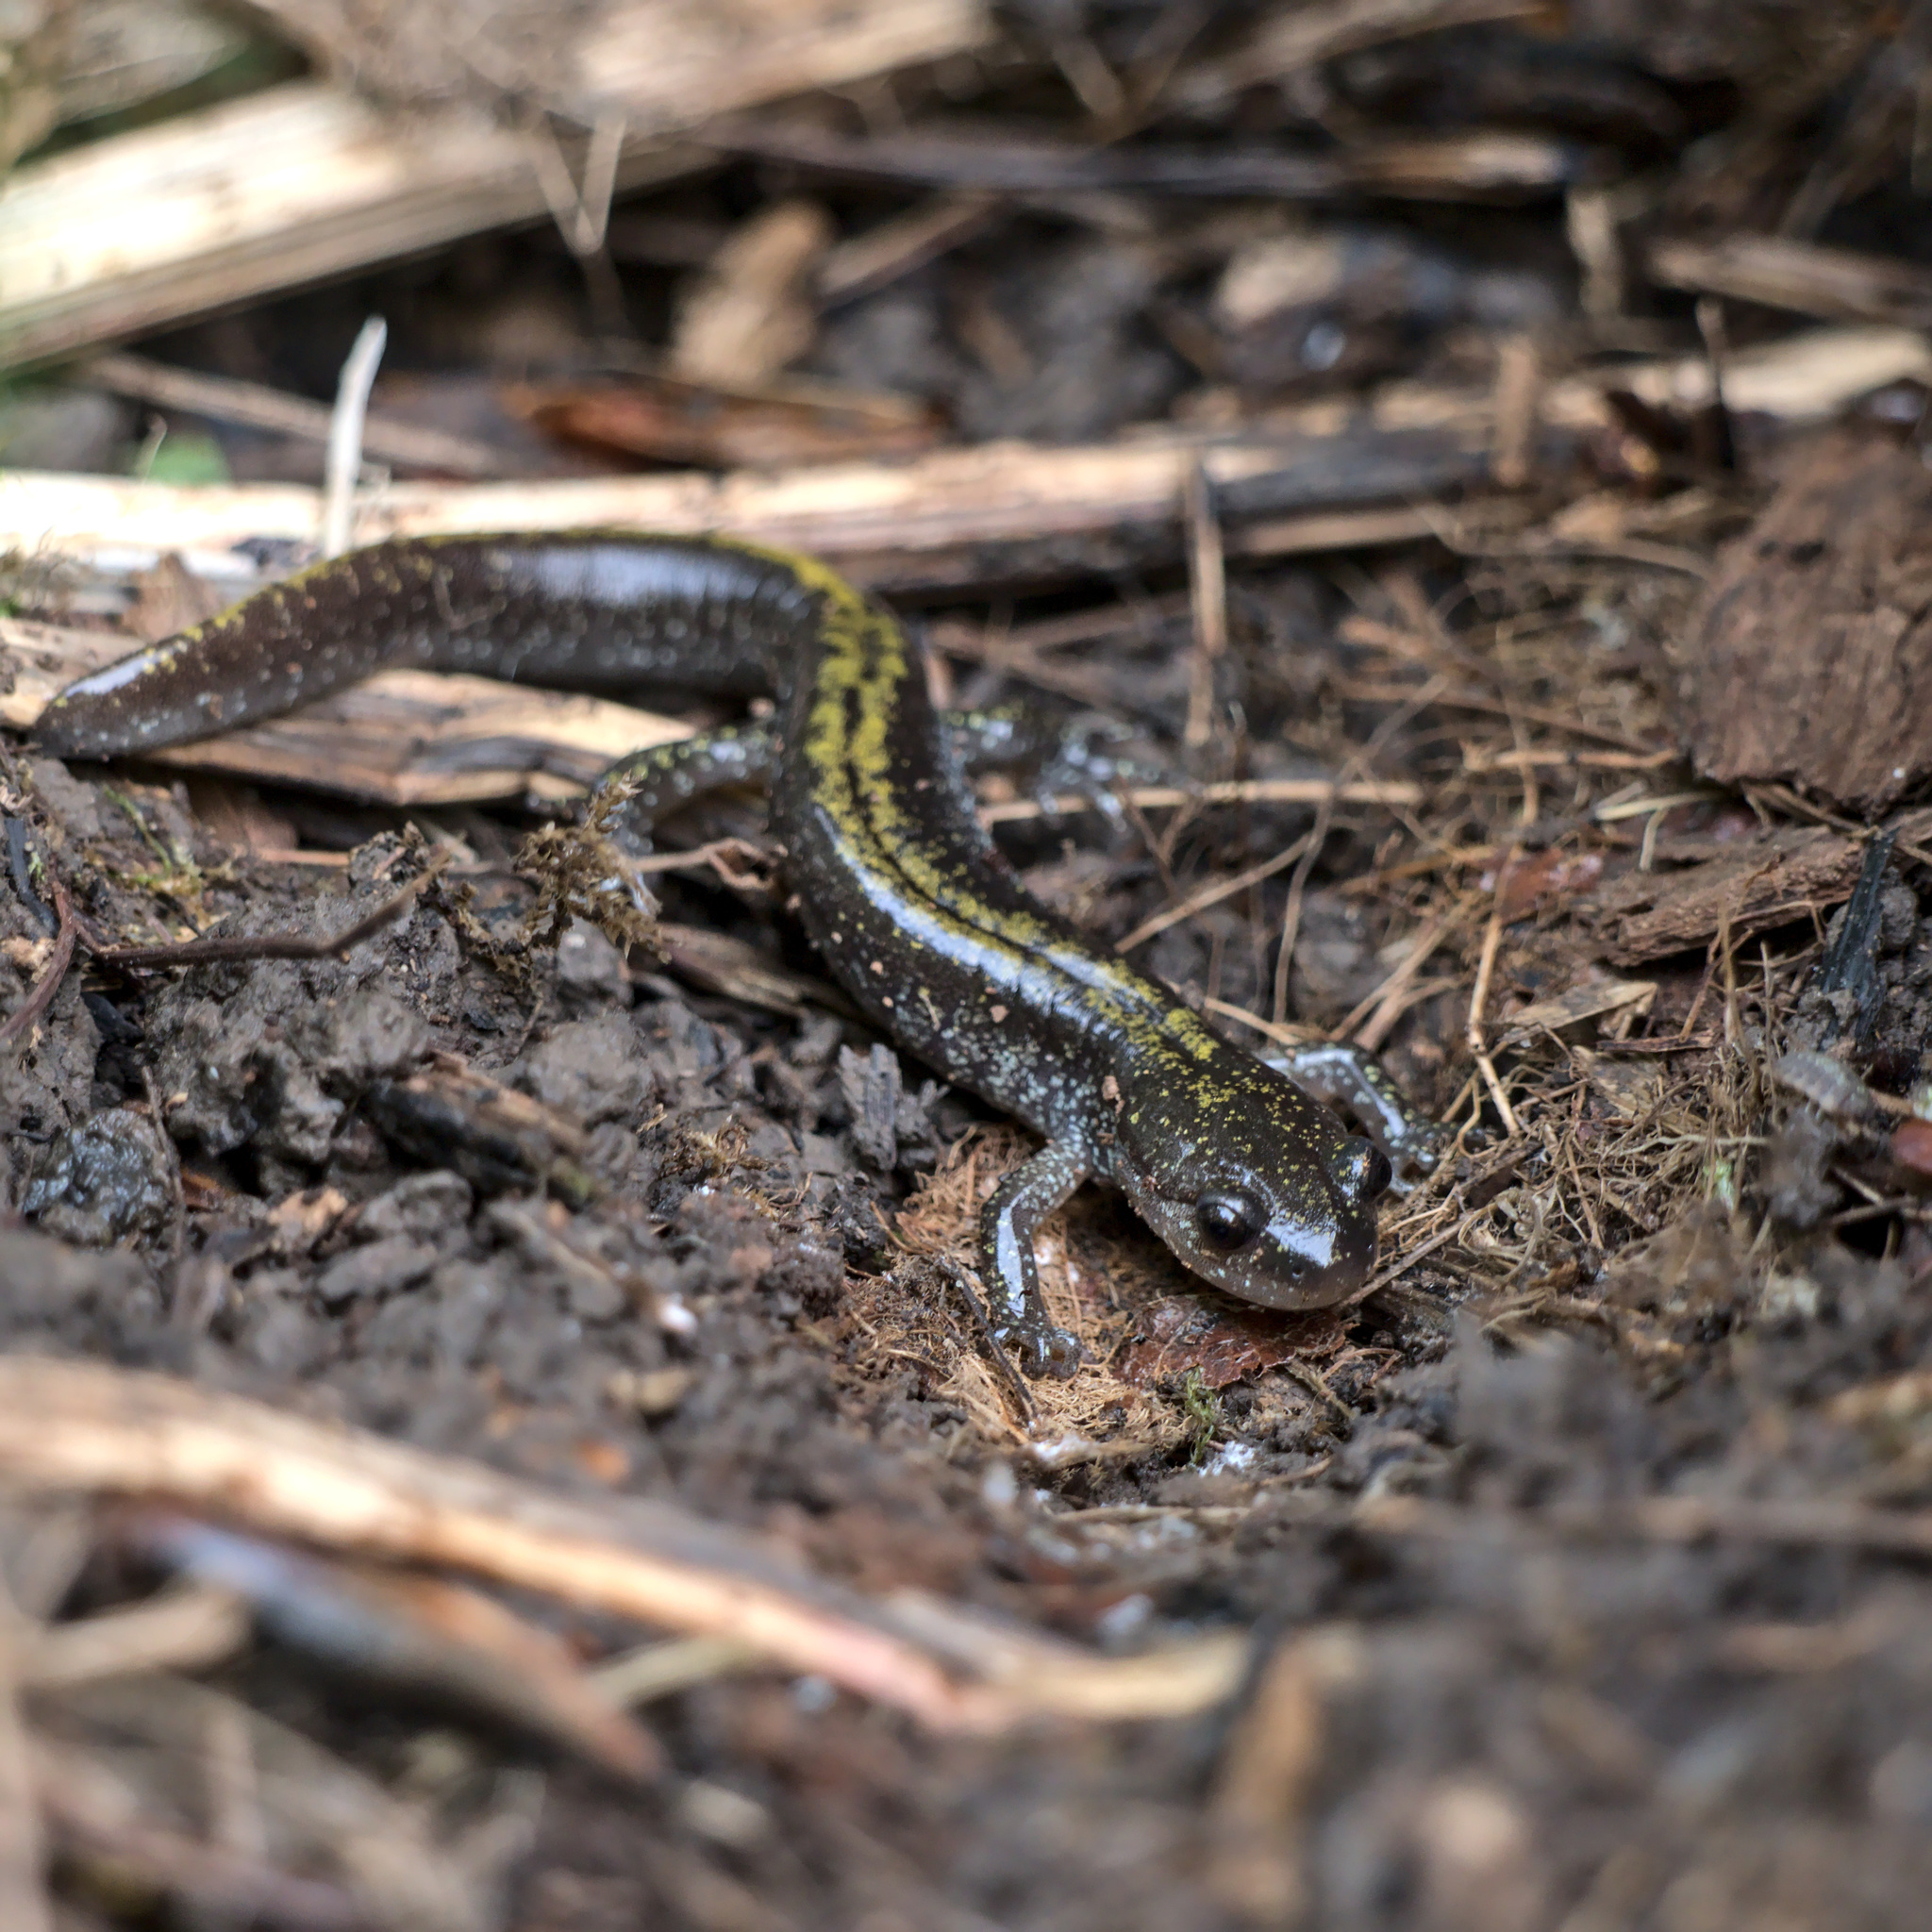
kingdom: Animalia
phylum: Chordata
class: Amphibia
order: Caudata
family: Ambystomatidae
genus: Ambystoma
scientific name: Ambystoma macrodactylum
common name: Long-toed salamander
